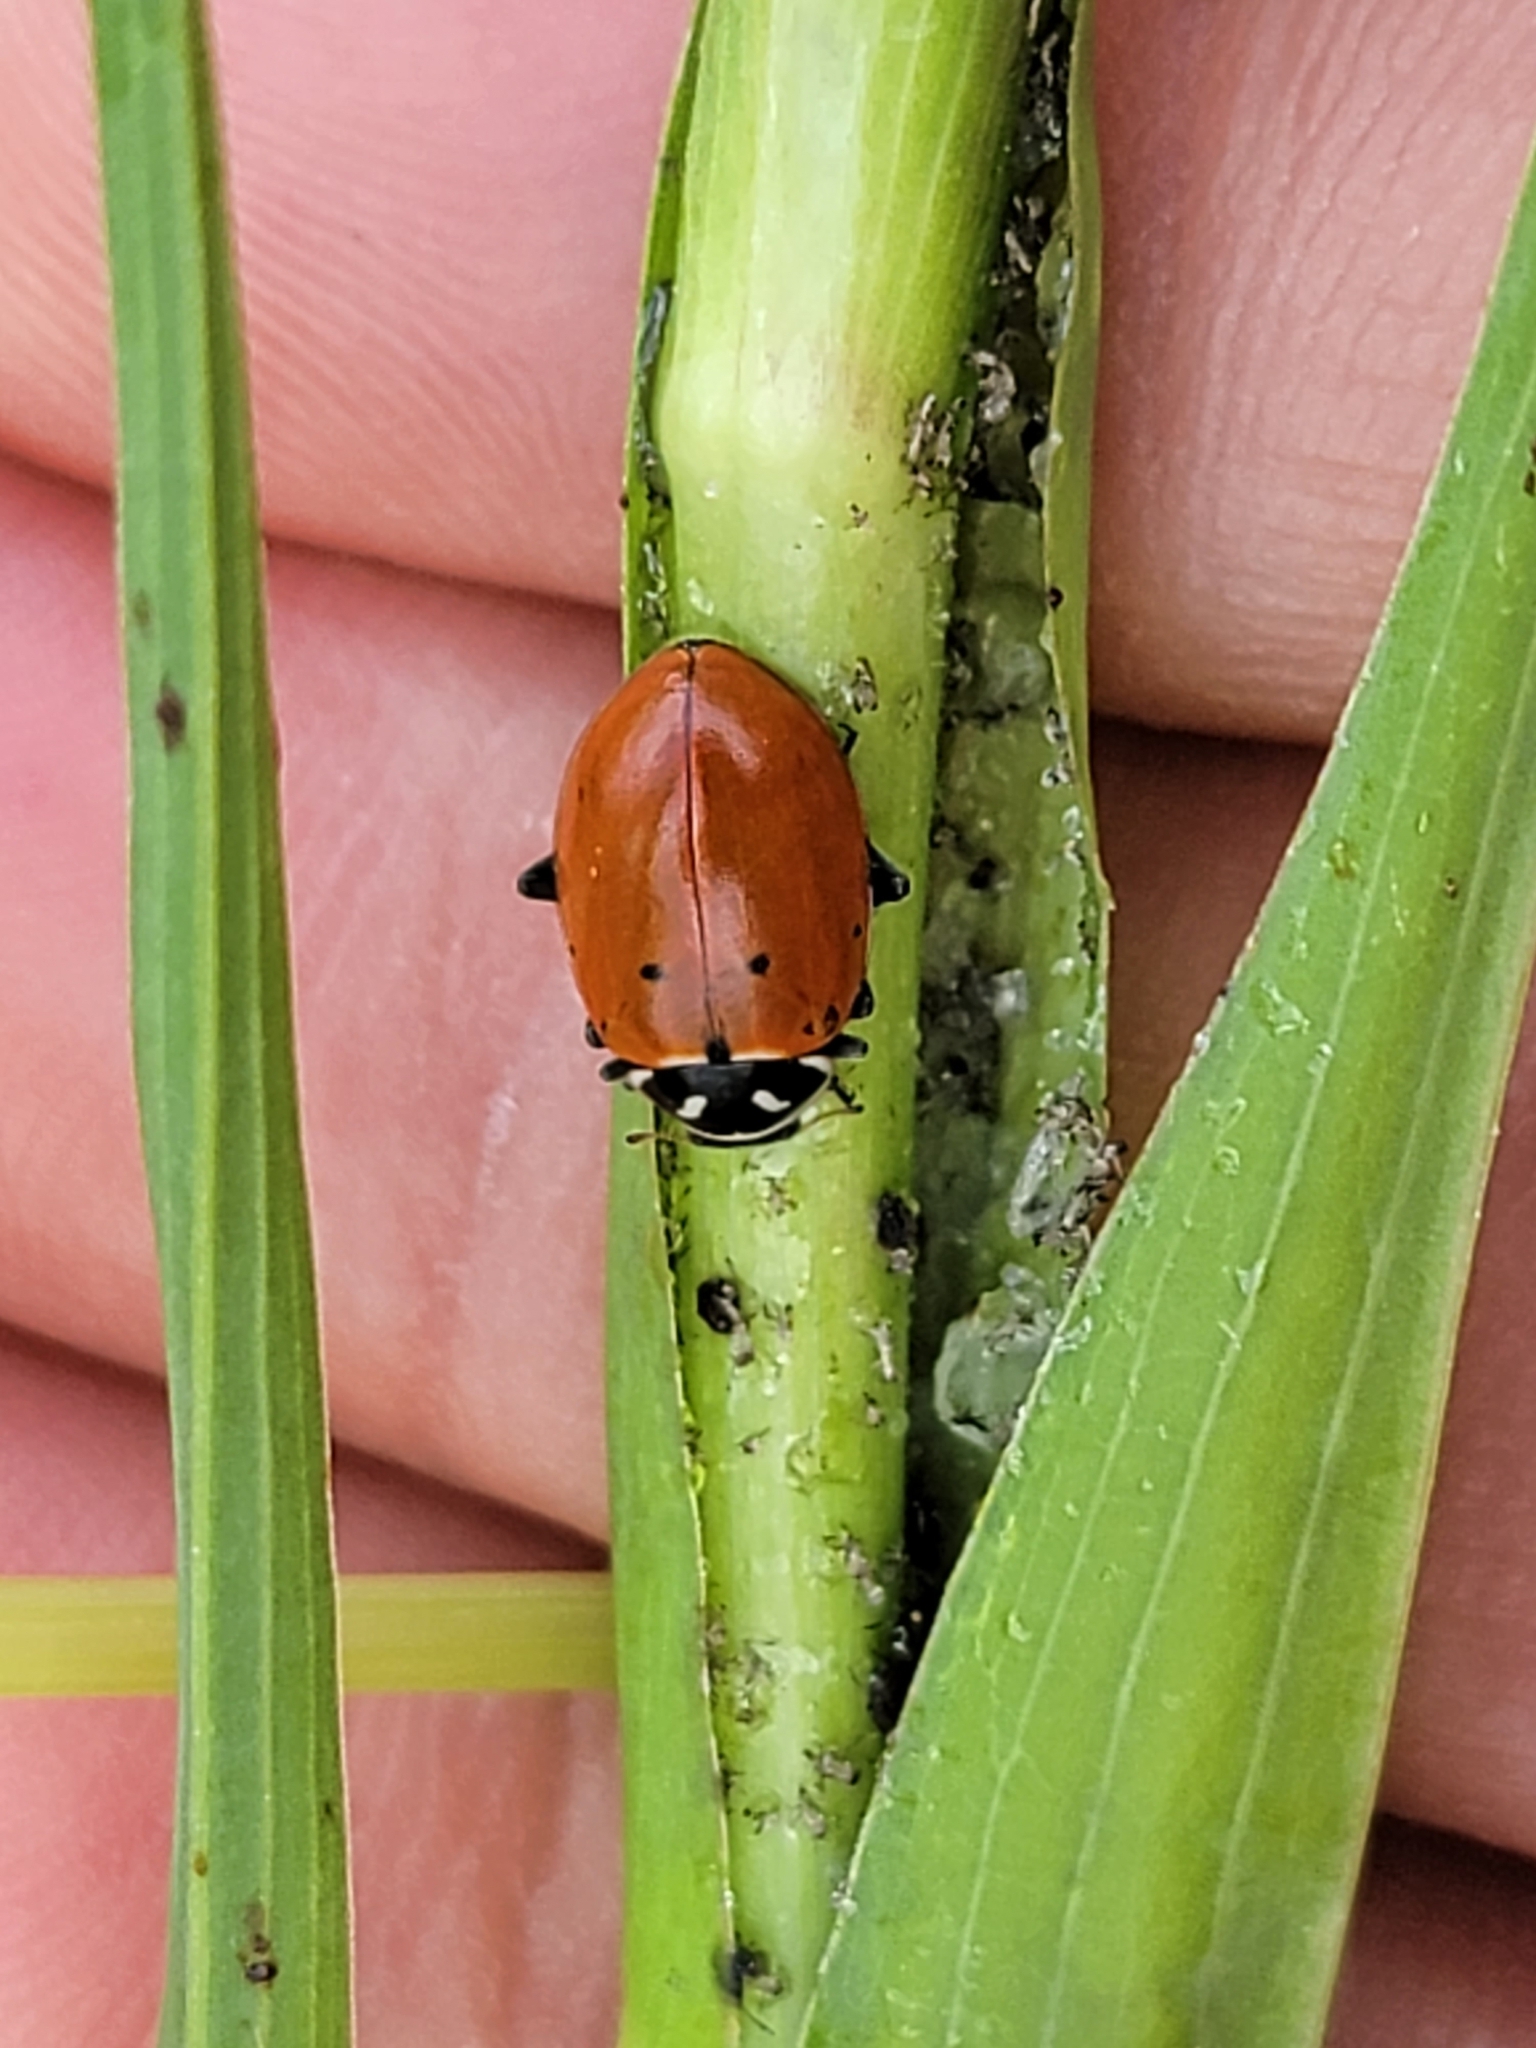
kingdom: Animalia
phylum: Arthropoda
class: Insecta
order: Coleoptera
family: Coccinellidae
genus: Hippodamia
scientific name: Hippodamia convergens
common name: Convergent lady beetle
